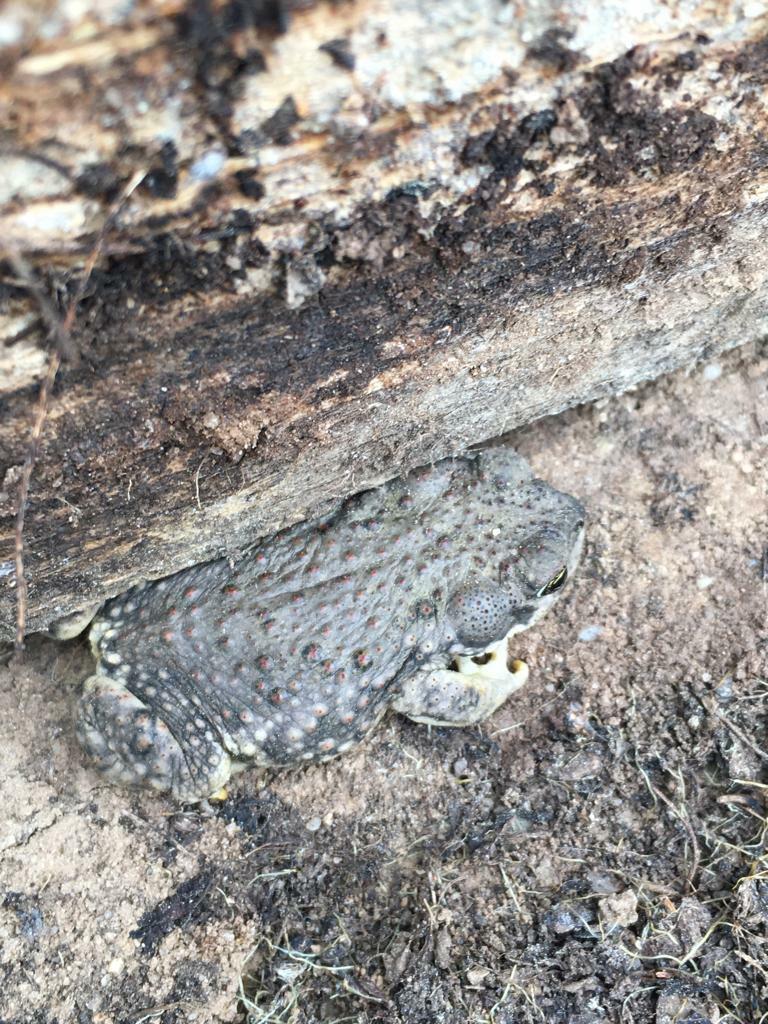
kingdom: Animalia
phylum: Chordata
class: Amphibia
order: Anura
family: Bufonidae
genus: Rhinella
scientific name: Rhinella arunco
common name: Concepcion toad
